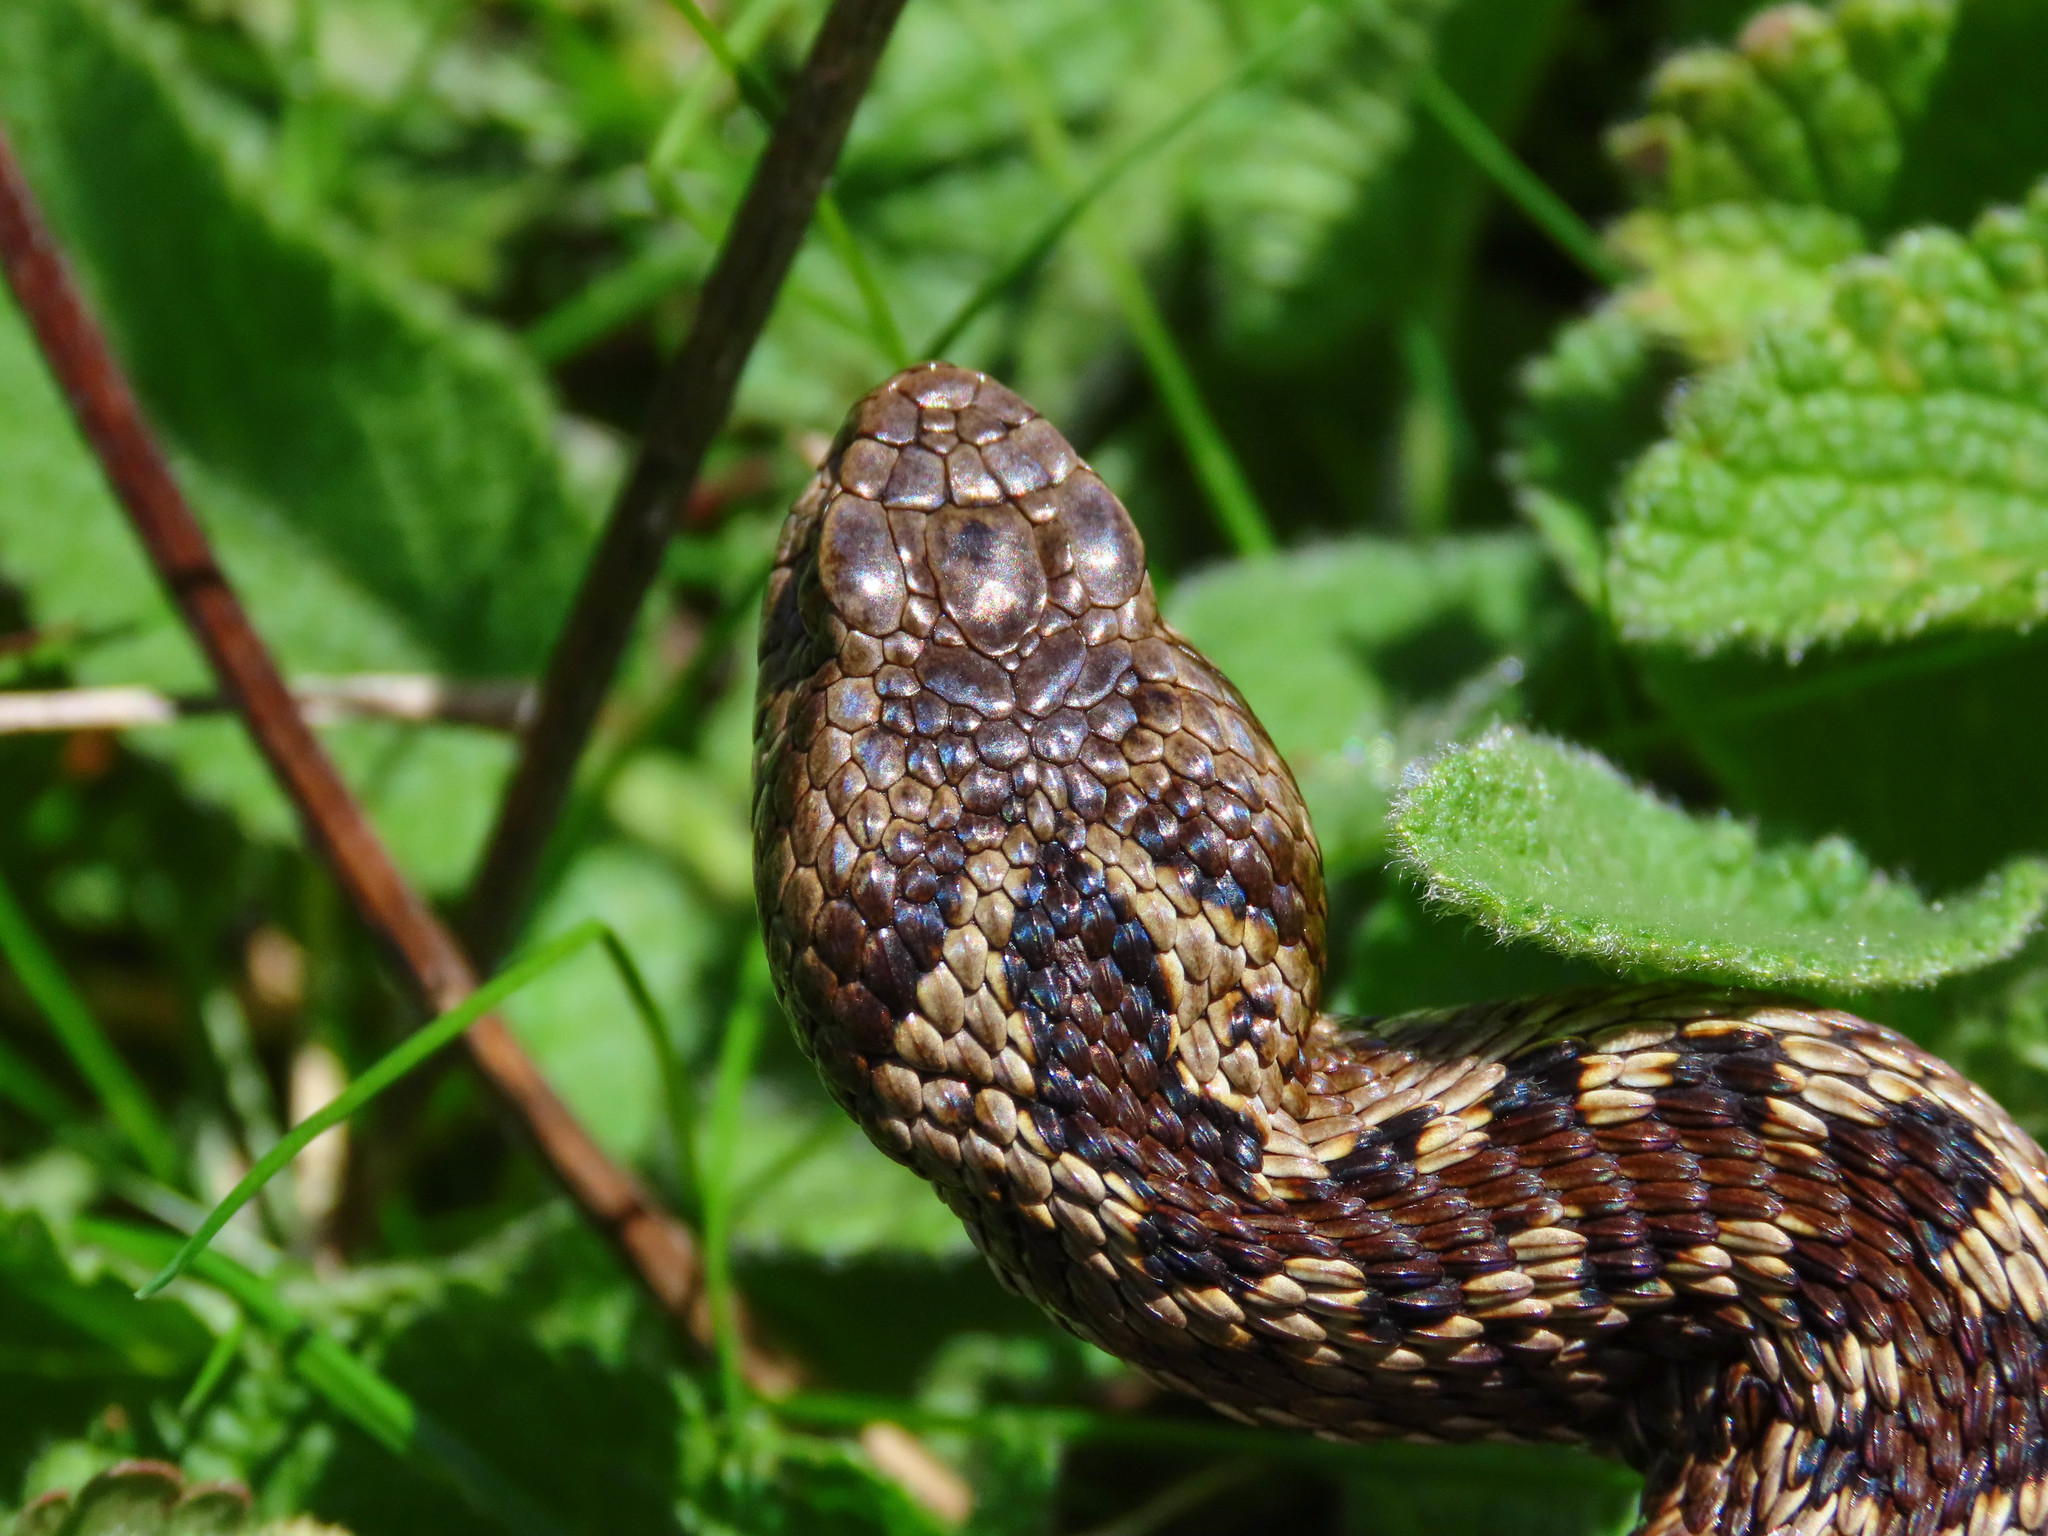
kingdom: Animalia
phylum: Chordata
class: Squamata
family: Viperidae
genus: Vipera
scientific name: Vipera ursinii
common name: Meadow viper
